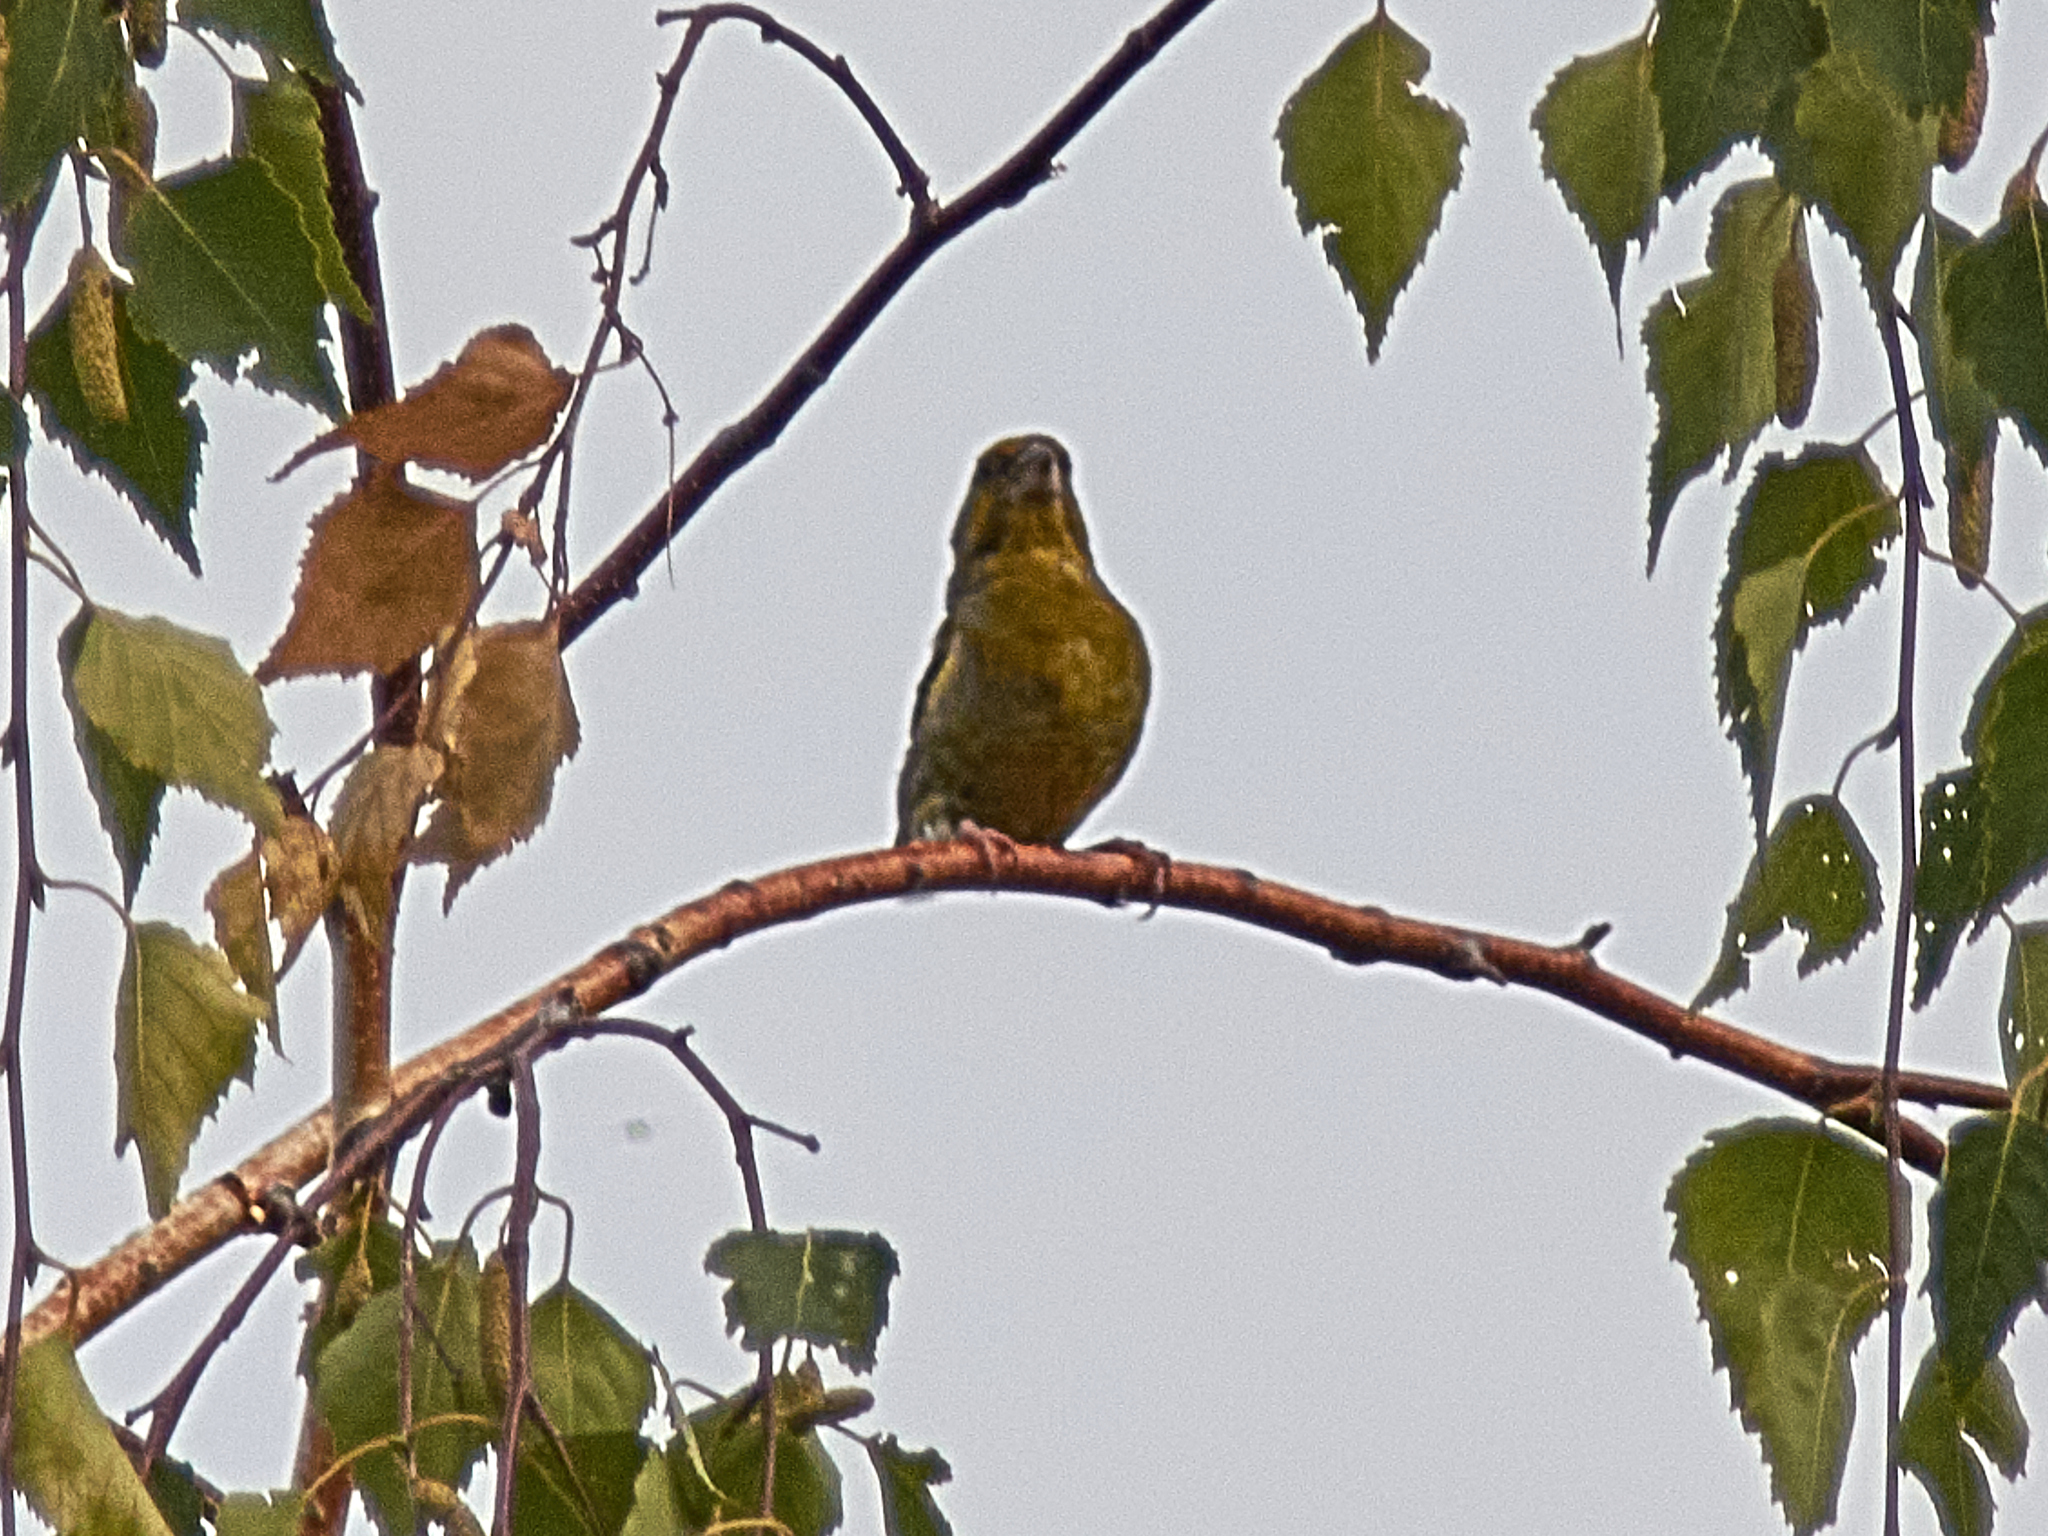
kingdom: Plantae
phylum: Tracheophyta
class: Liliopsida
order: Poales
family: Poaceae
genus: Chloris
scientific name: Chloris chloris
